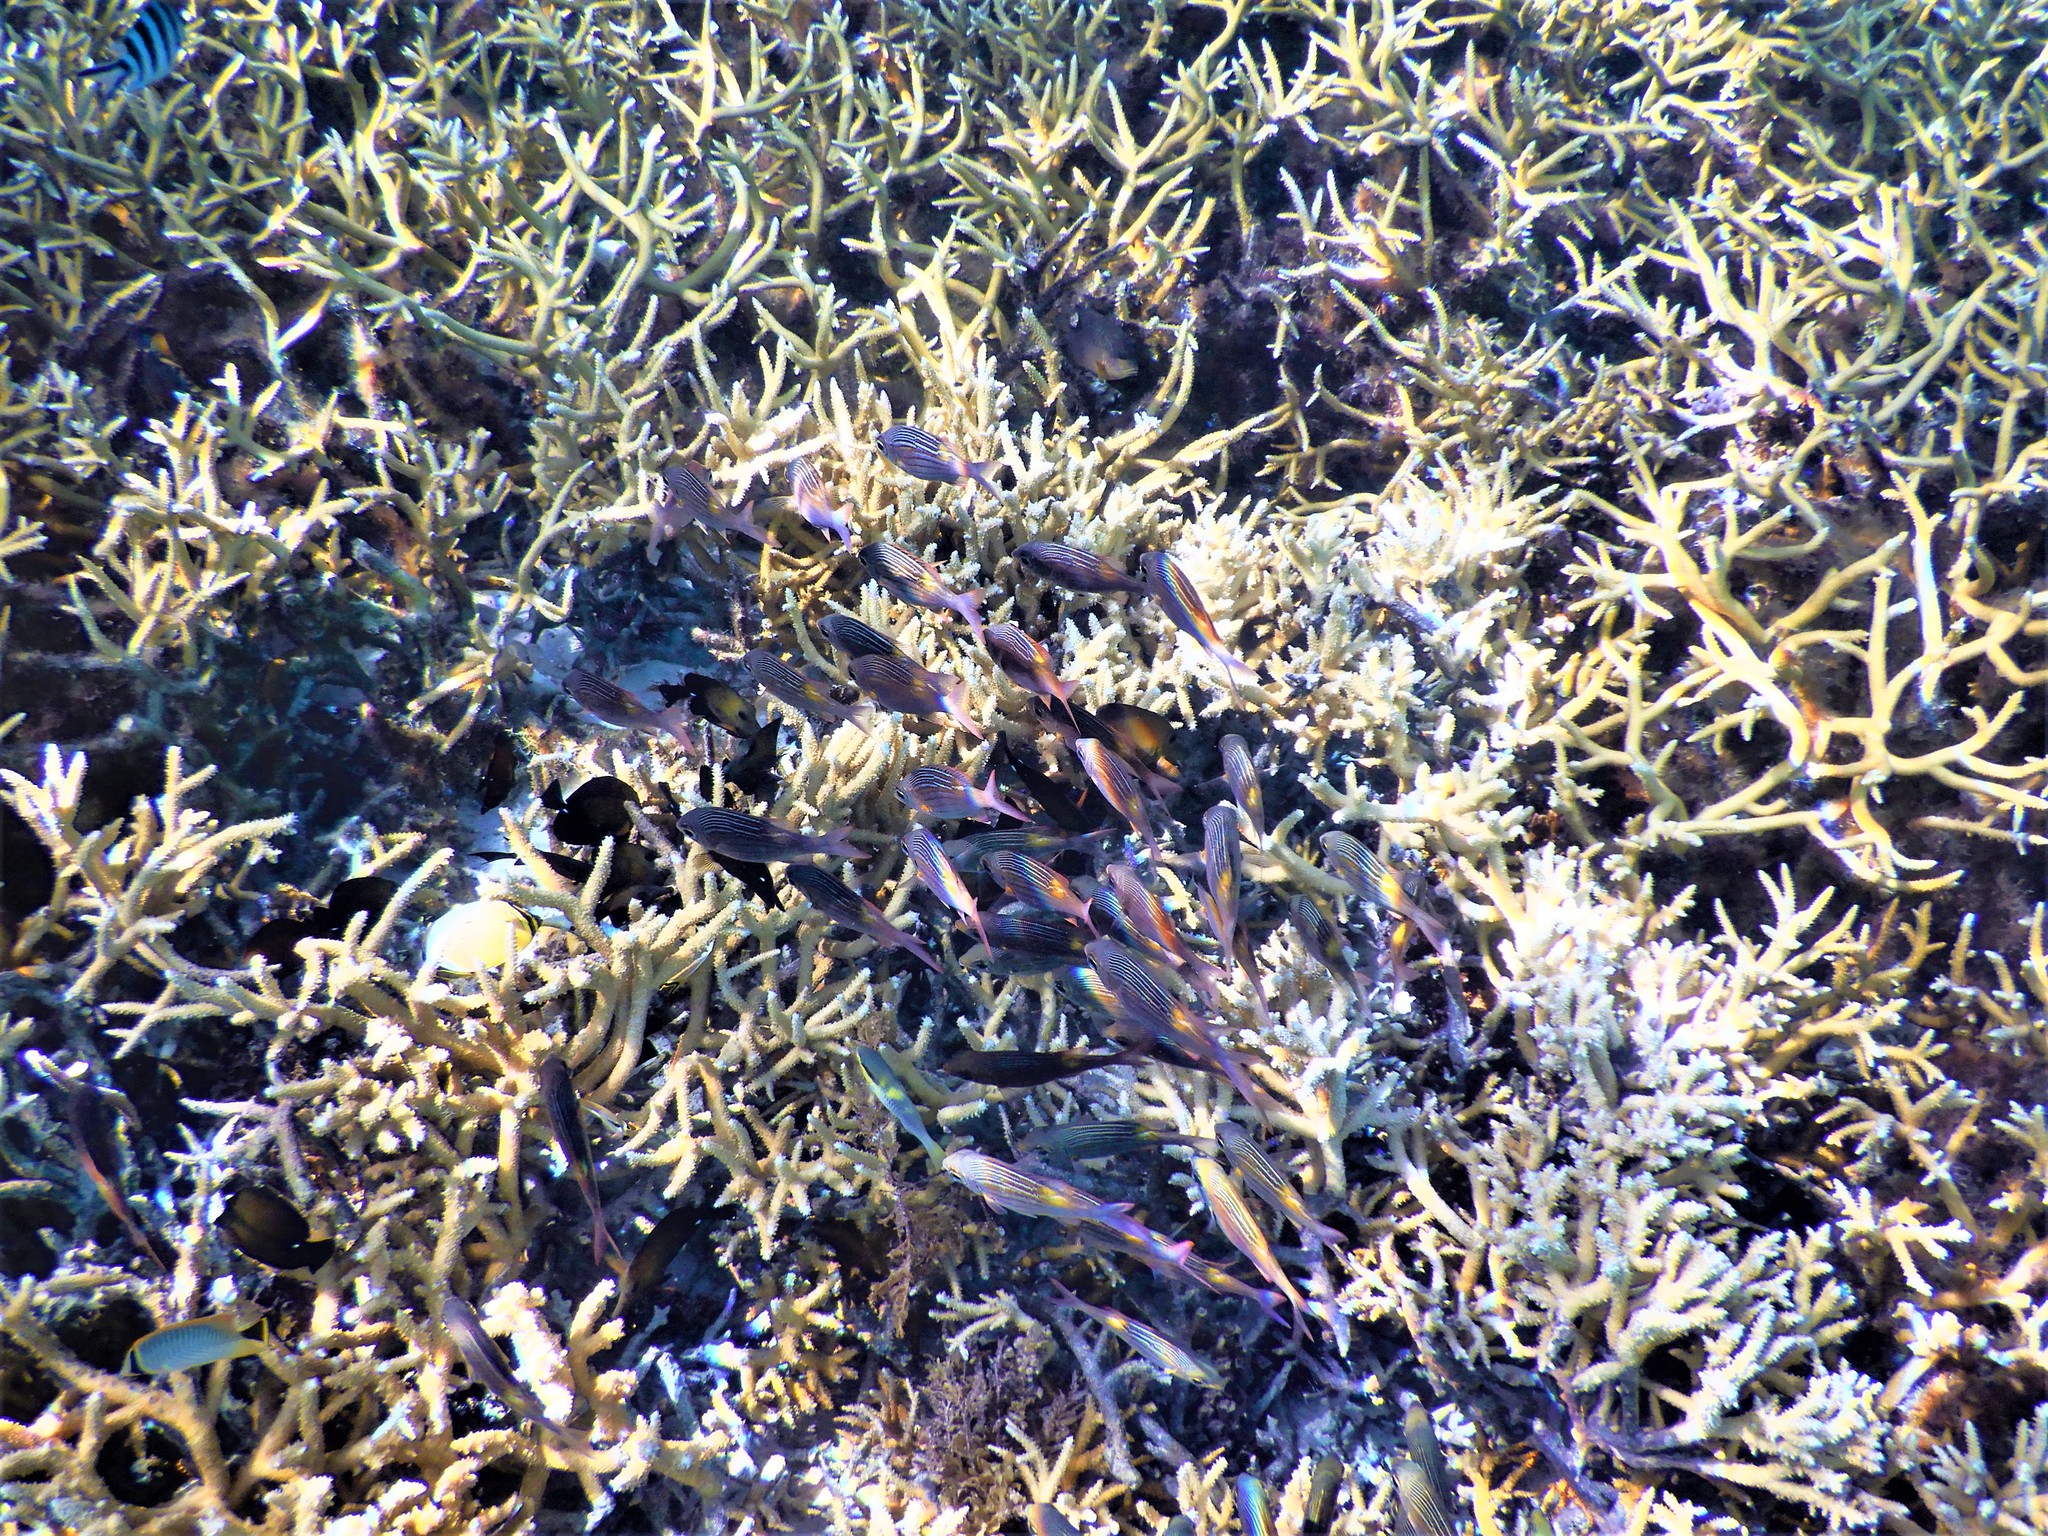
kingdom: Animalia
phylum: Chordata
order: Perciformes
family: Lethrinidae
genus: Gnathodentex
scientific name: Gnathodentex aureolineatus
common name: Gold-lined sea bream
